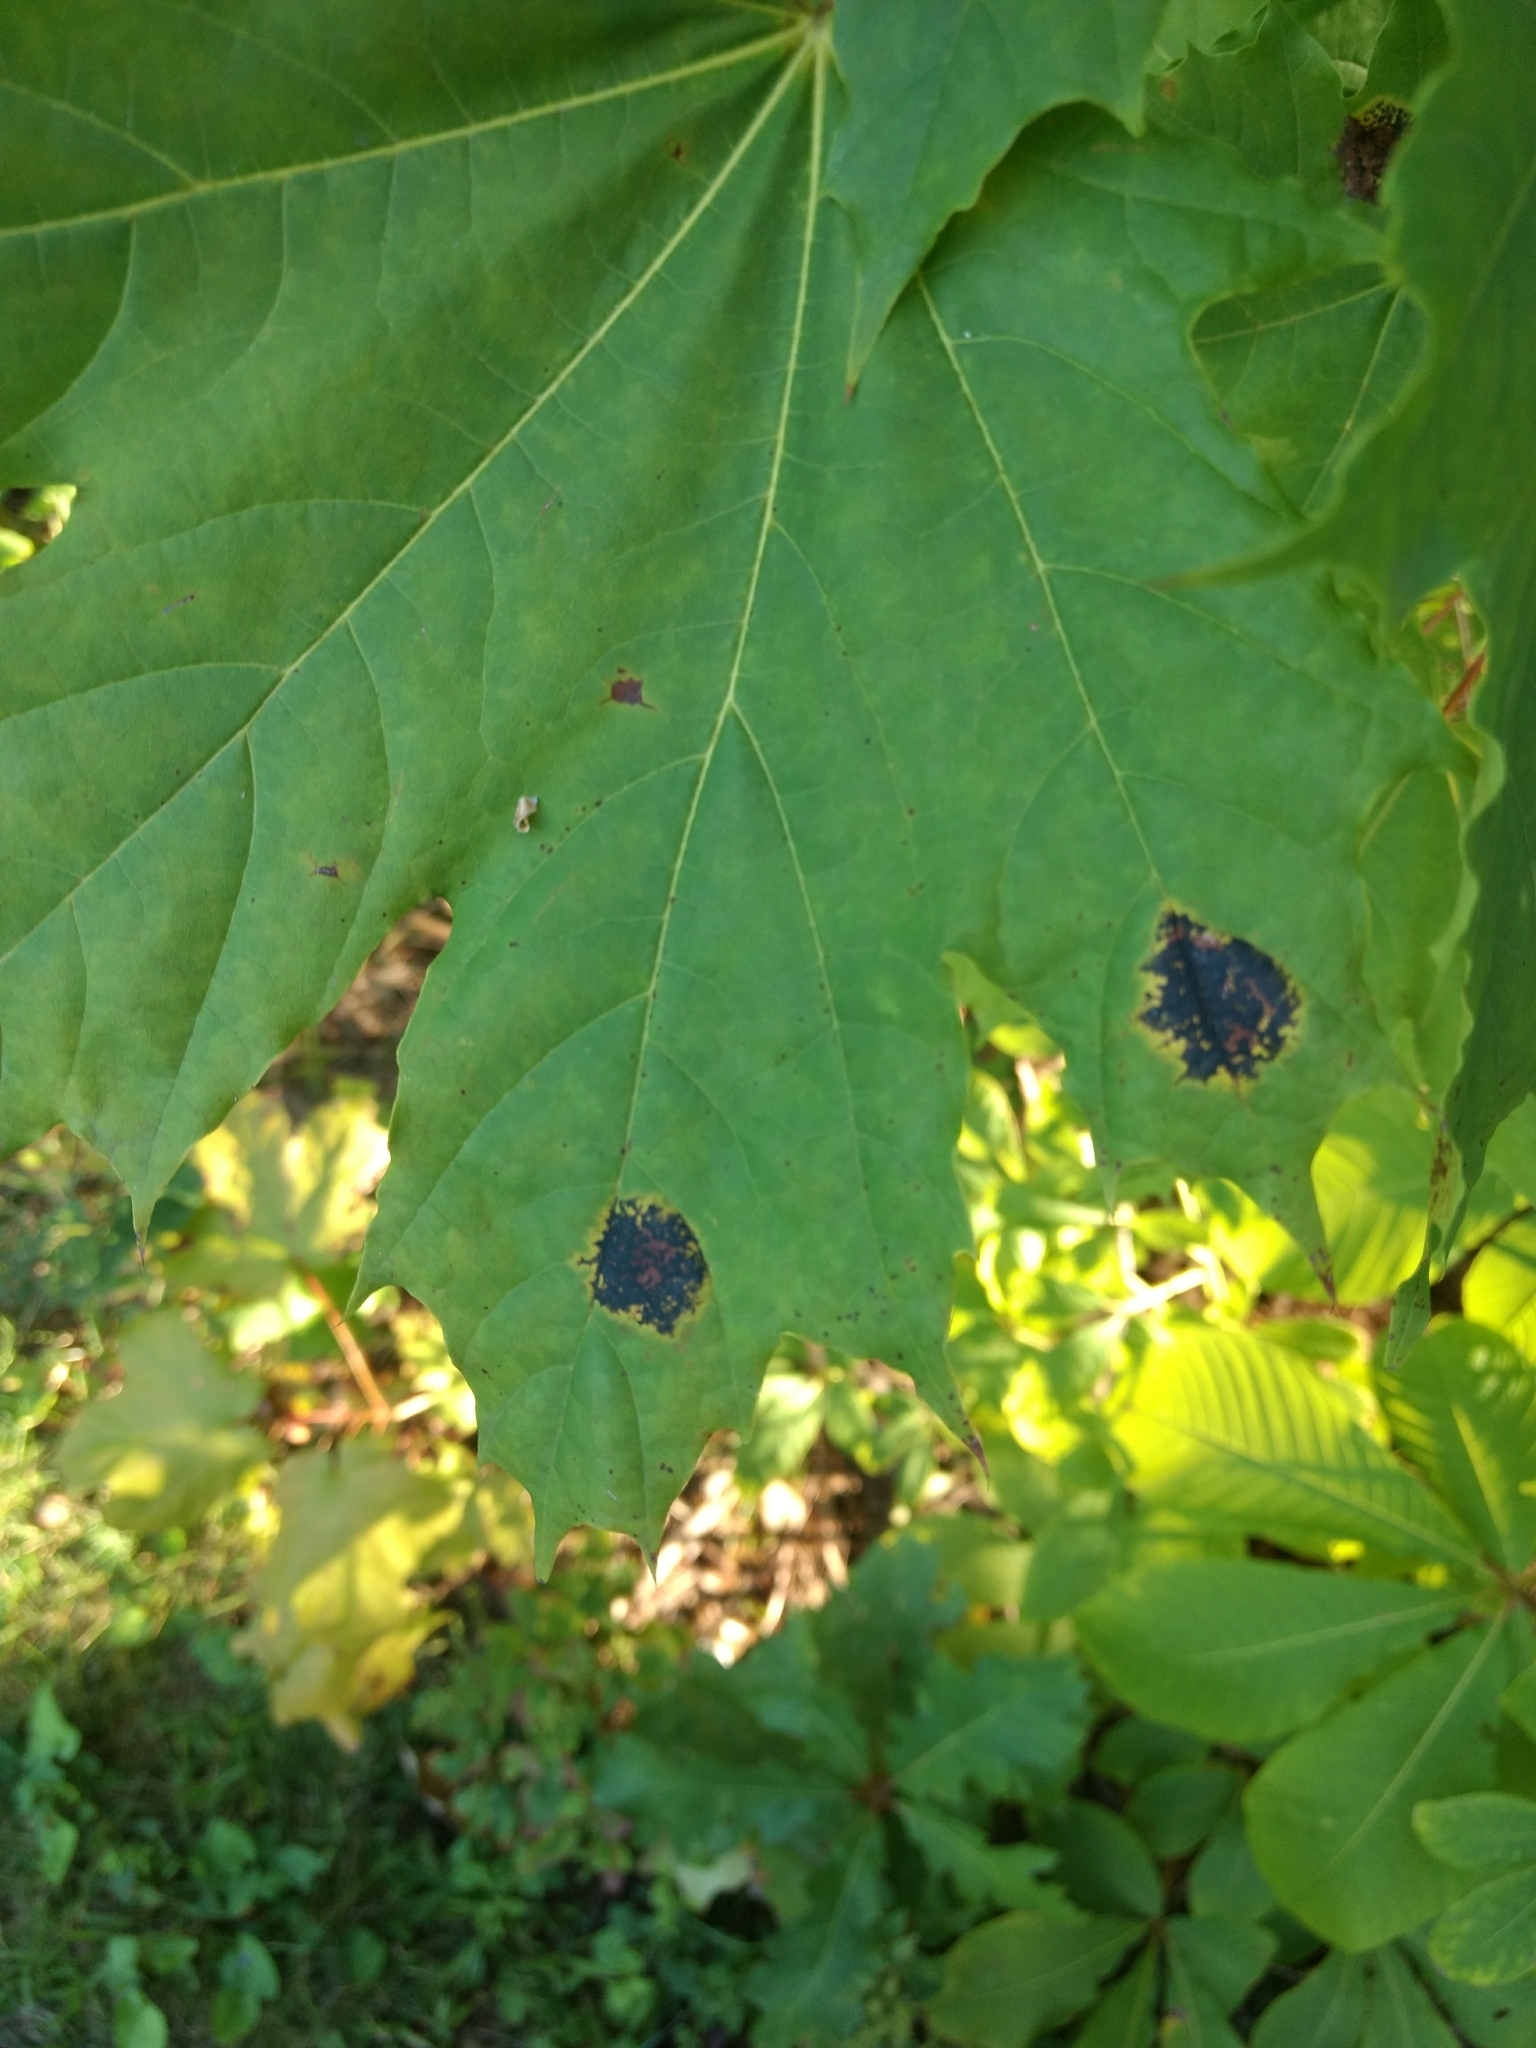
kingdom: Fungi
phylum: Ascomycota
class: Leotiomycetes
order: Rhytismatales
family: Rhytismataceae
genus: Rhytisma
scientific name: Rhytisma acerinum
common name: European tar spot
